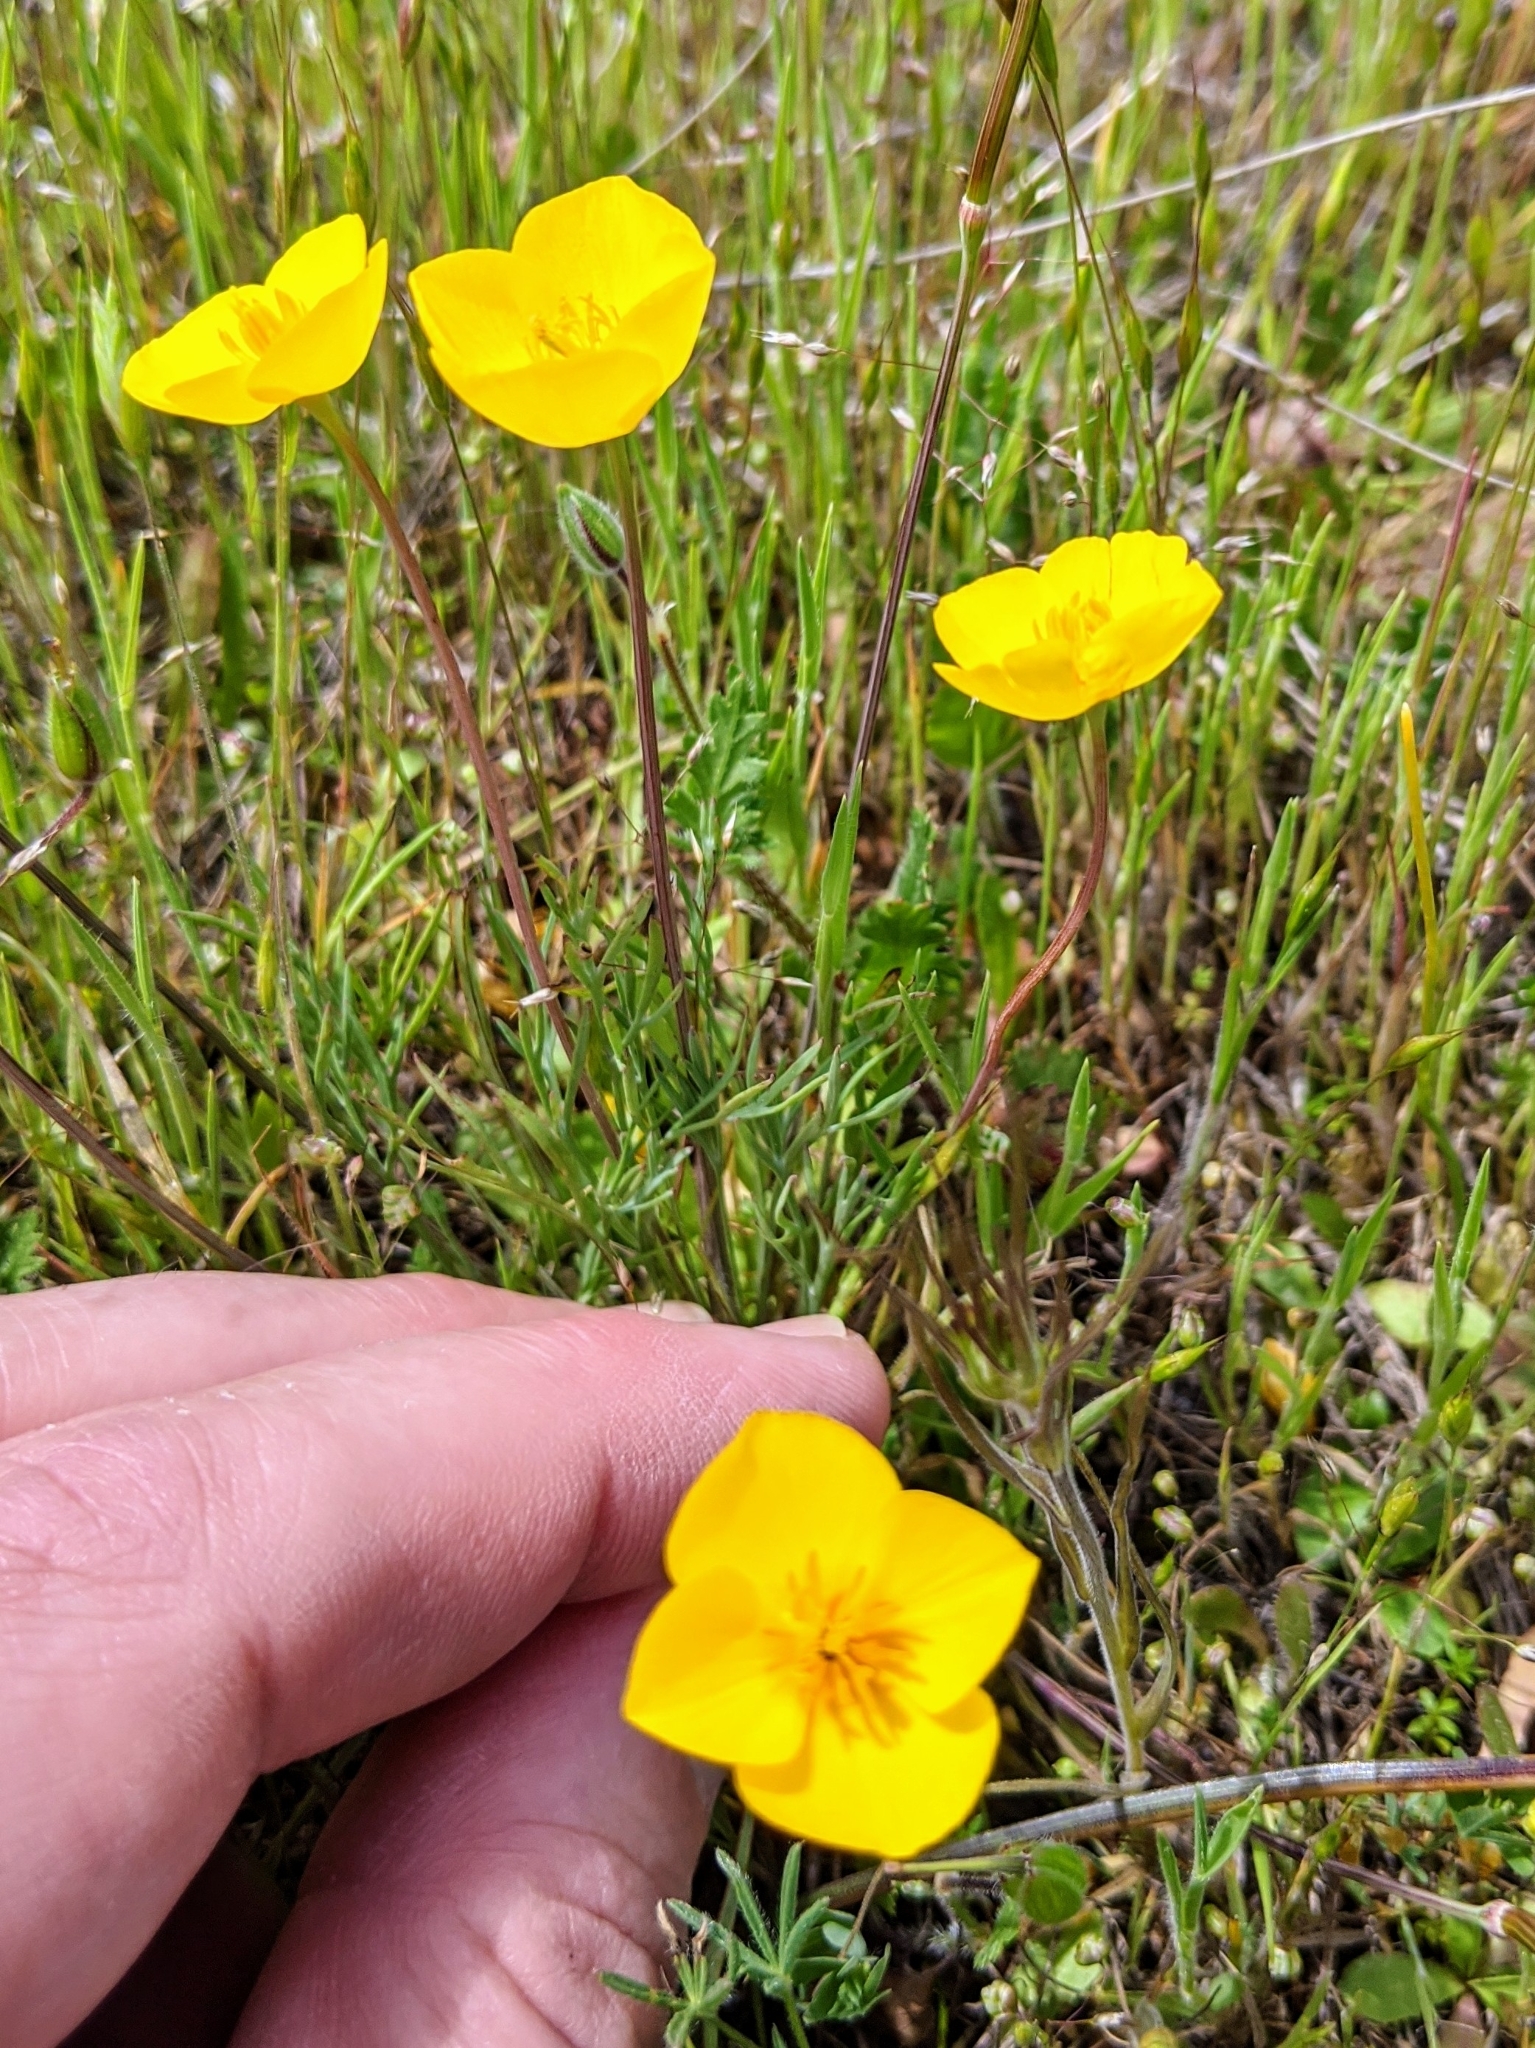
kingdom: Plantae
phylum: Tracheophyta
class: Magnoliopsida
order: Ranunculales
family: Papaveraceae
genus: Eschscholzia
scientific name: Eschscholzia lobbii
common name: Frying-pans
